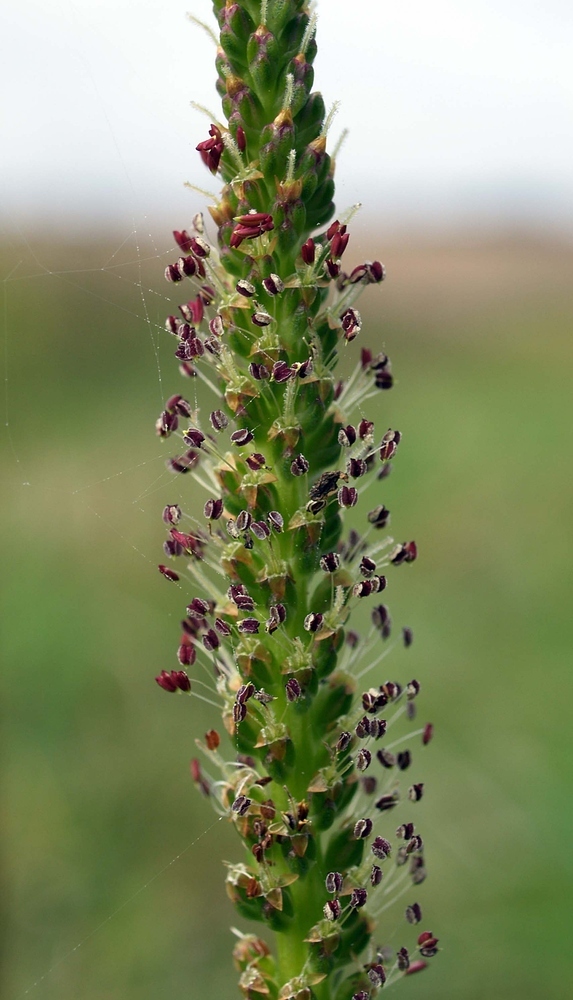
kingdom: Plantae
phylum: Tracheophyta
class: Magnoliopsida
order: Lamiales
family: Plantaginaceae
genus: Plantago
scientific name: Plantago major
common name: Common plantain
